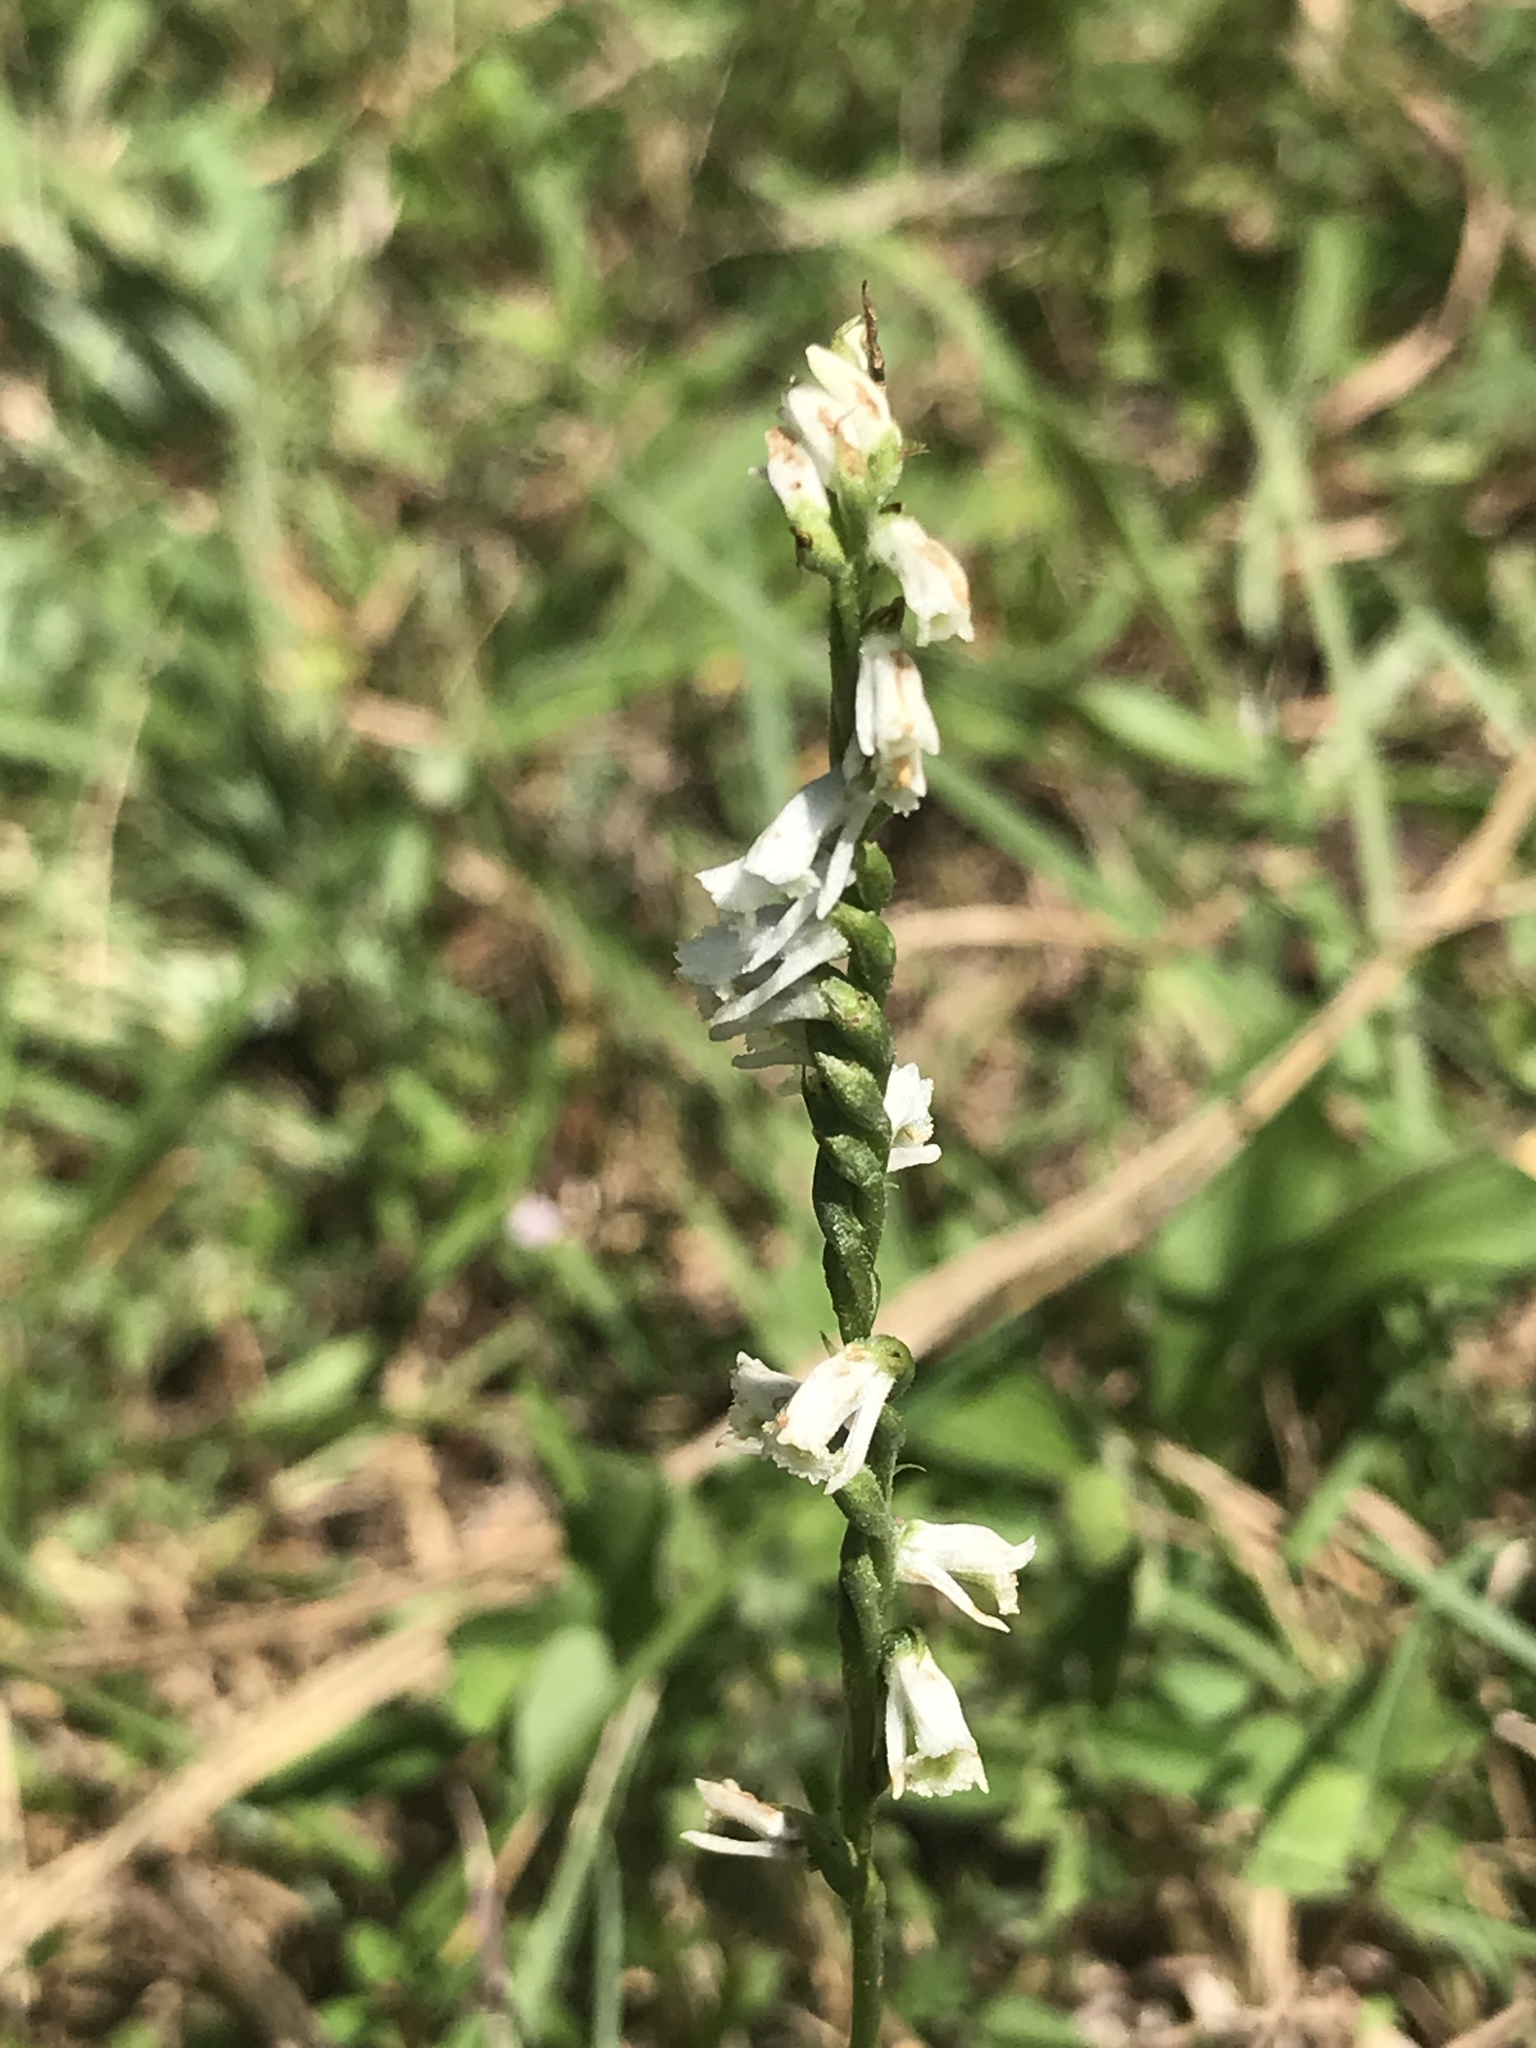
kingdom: Plantae
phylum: Tracheophyta
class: Liliopsida
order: Asparagales
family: Orchidaceae
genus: Spiranthes
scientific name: Spiranthes lacera
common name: Northern slender ladies'-tresses
